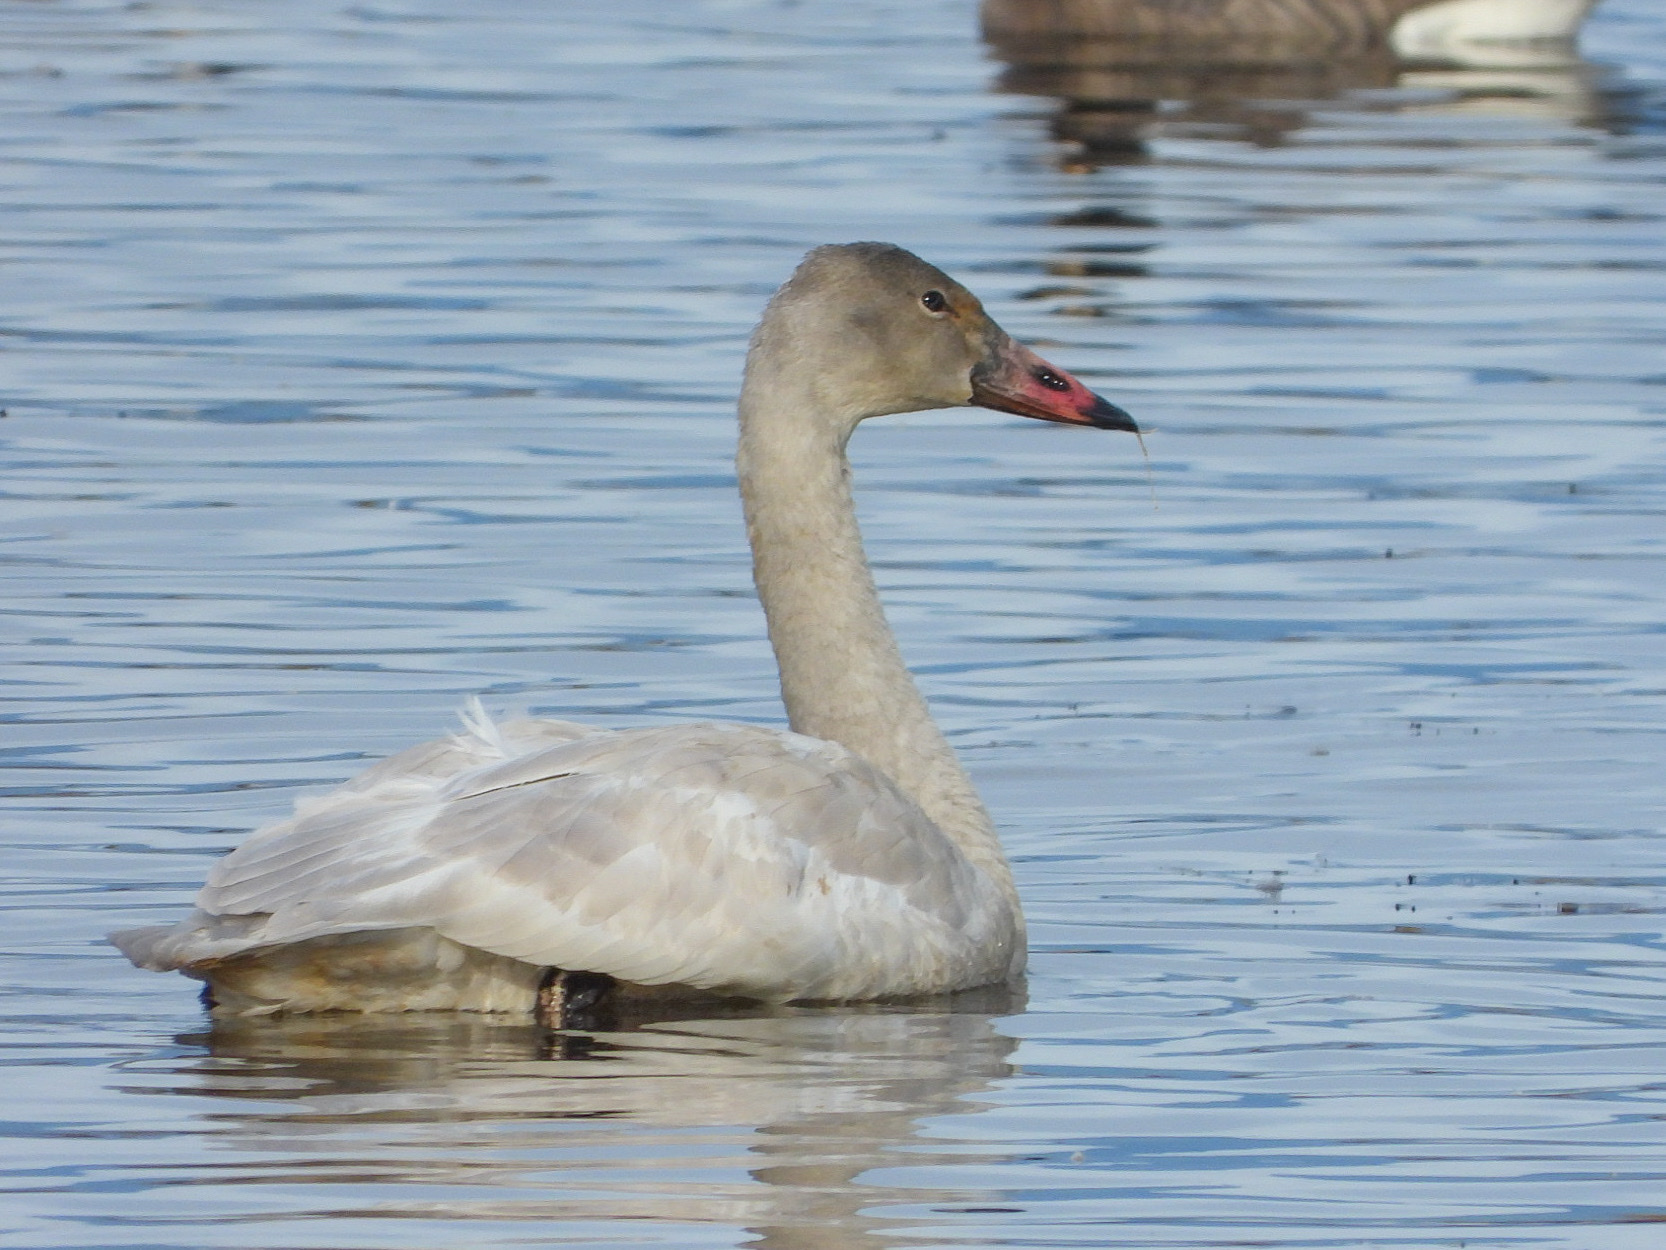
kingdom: Animalia
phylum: Chordata
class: Aves
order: Anseriformes
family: Anatidae
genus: Cygnus
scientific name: Cygnus columbianus
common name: Tundra swan
